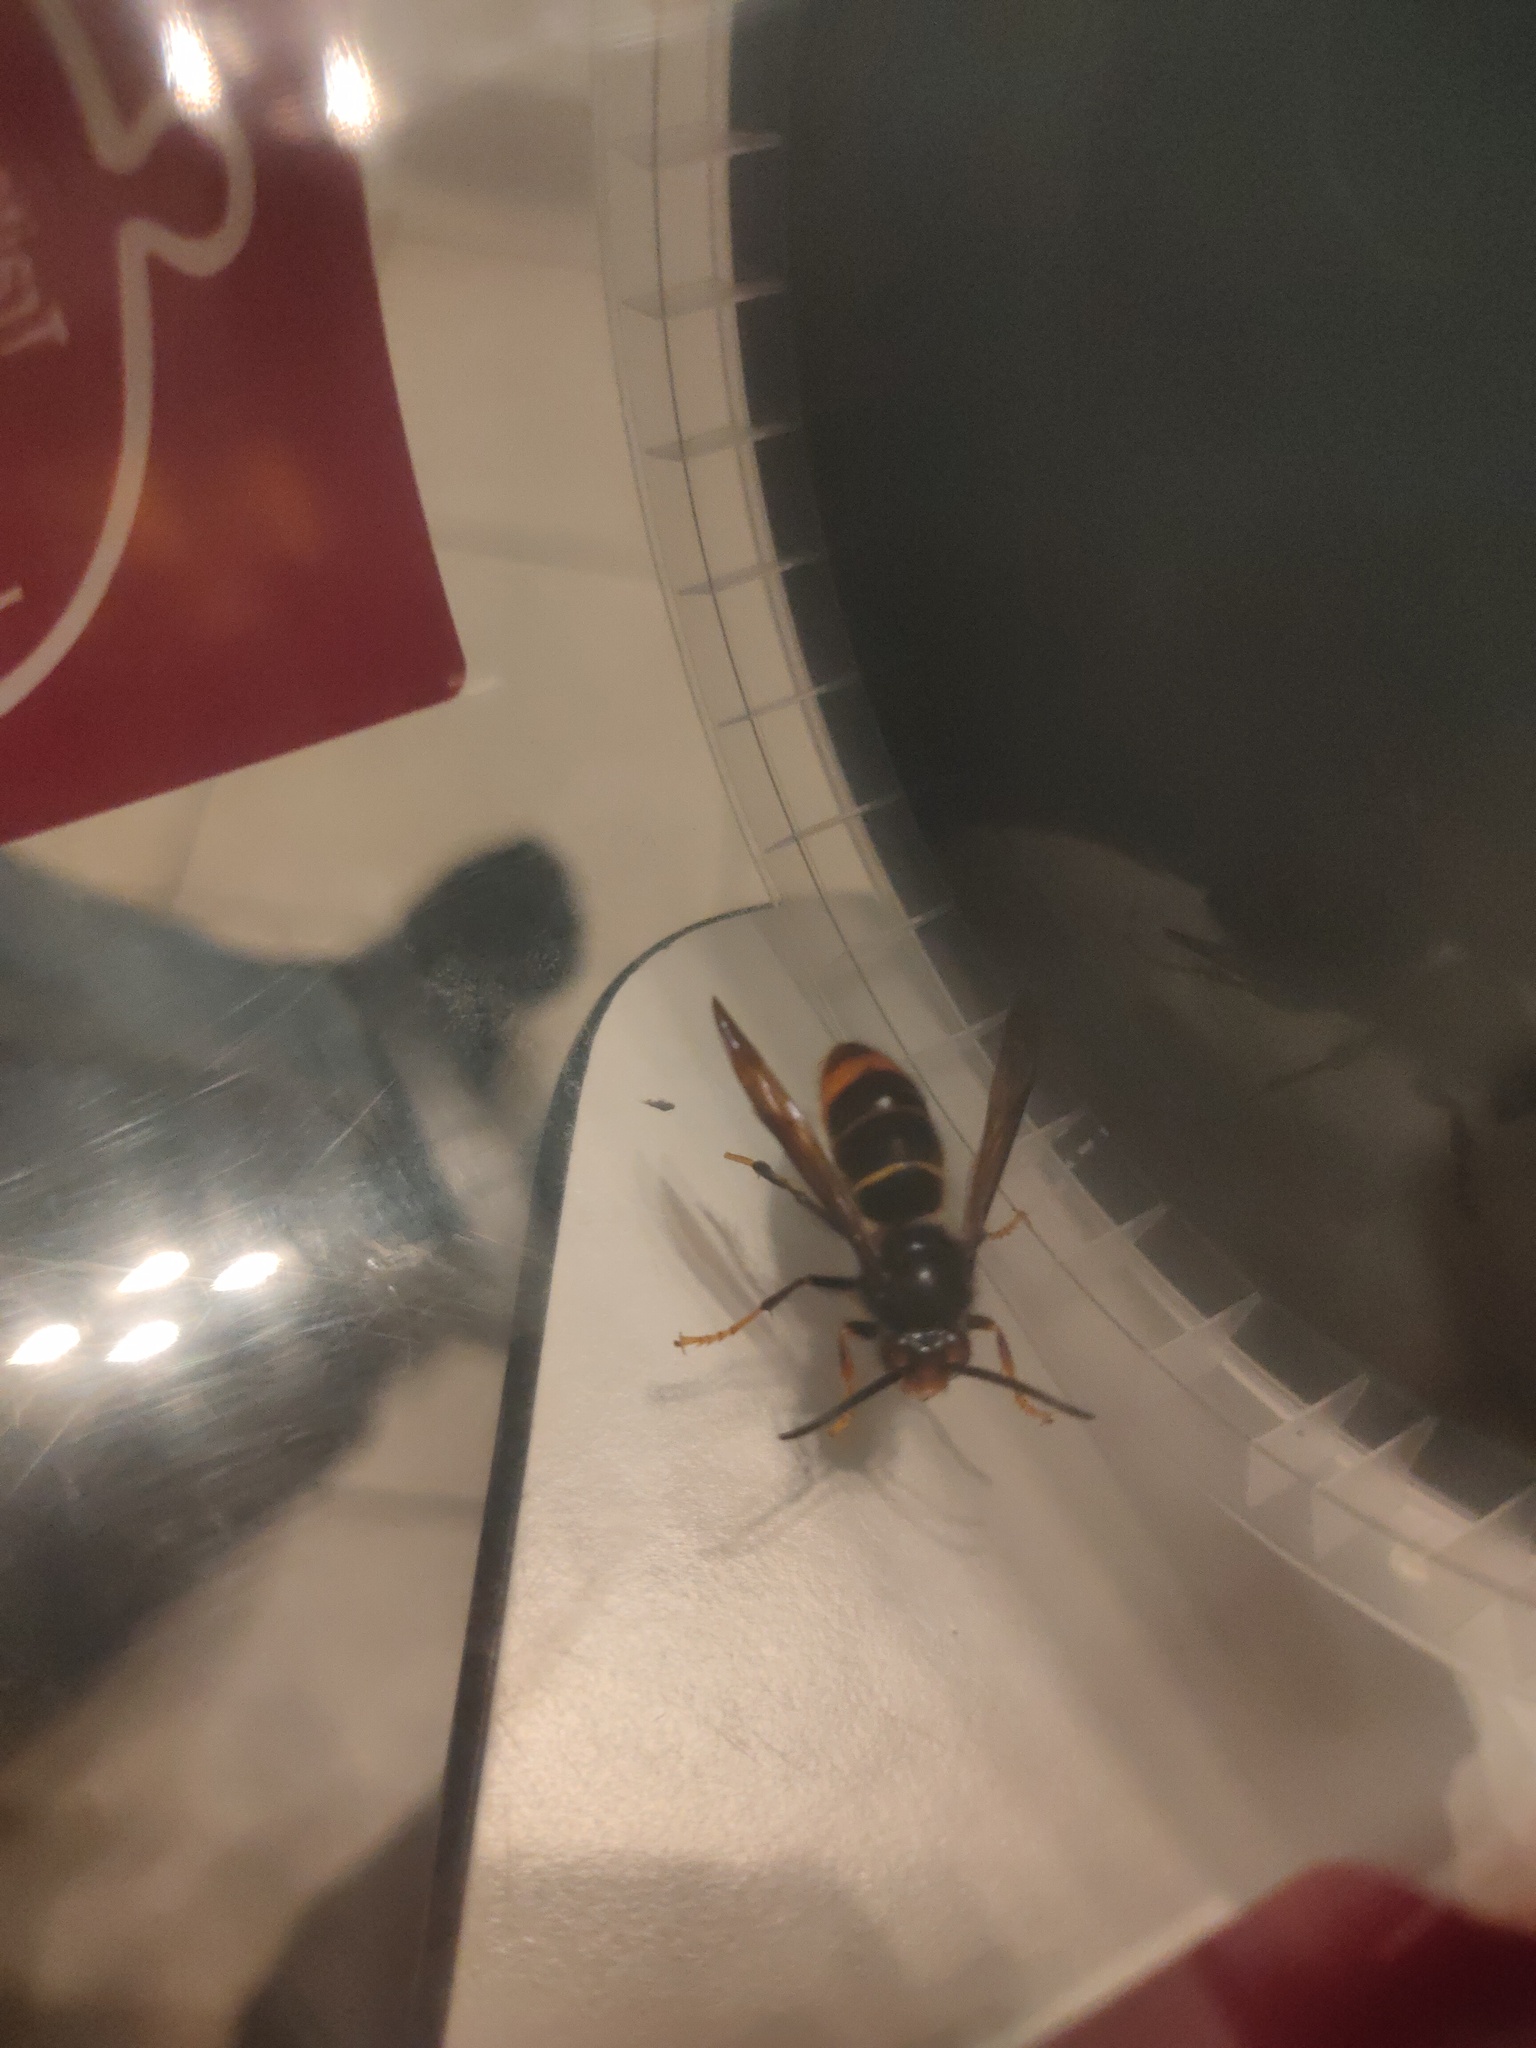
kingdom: Animalia
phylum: Arthropoda
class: Insecta
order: Hymenoptera
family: Vespidae
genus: Vespa
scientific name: Vespa velutina
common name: Asian hornet
